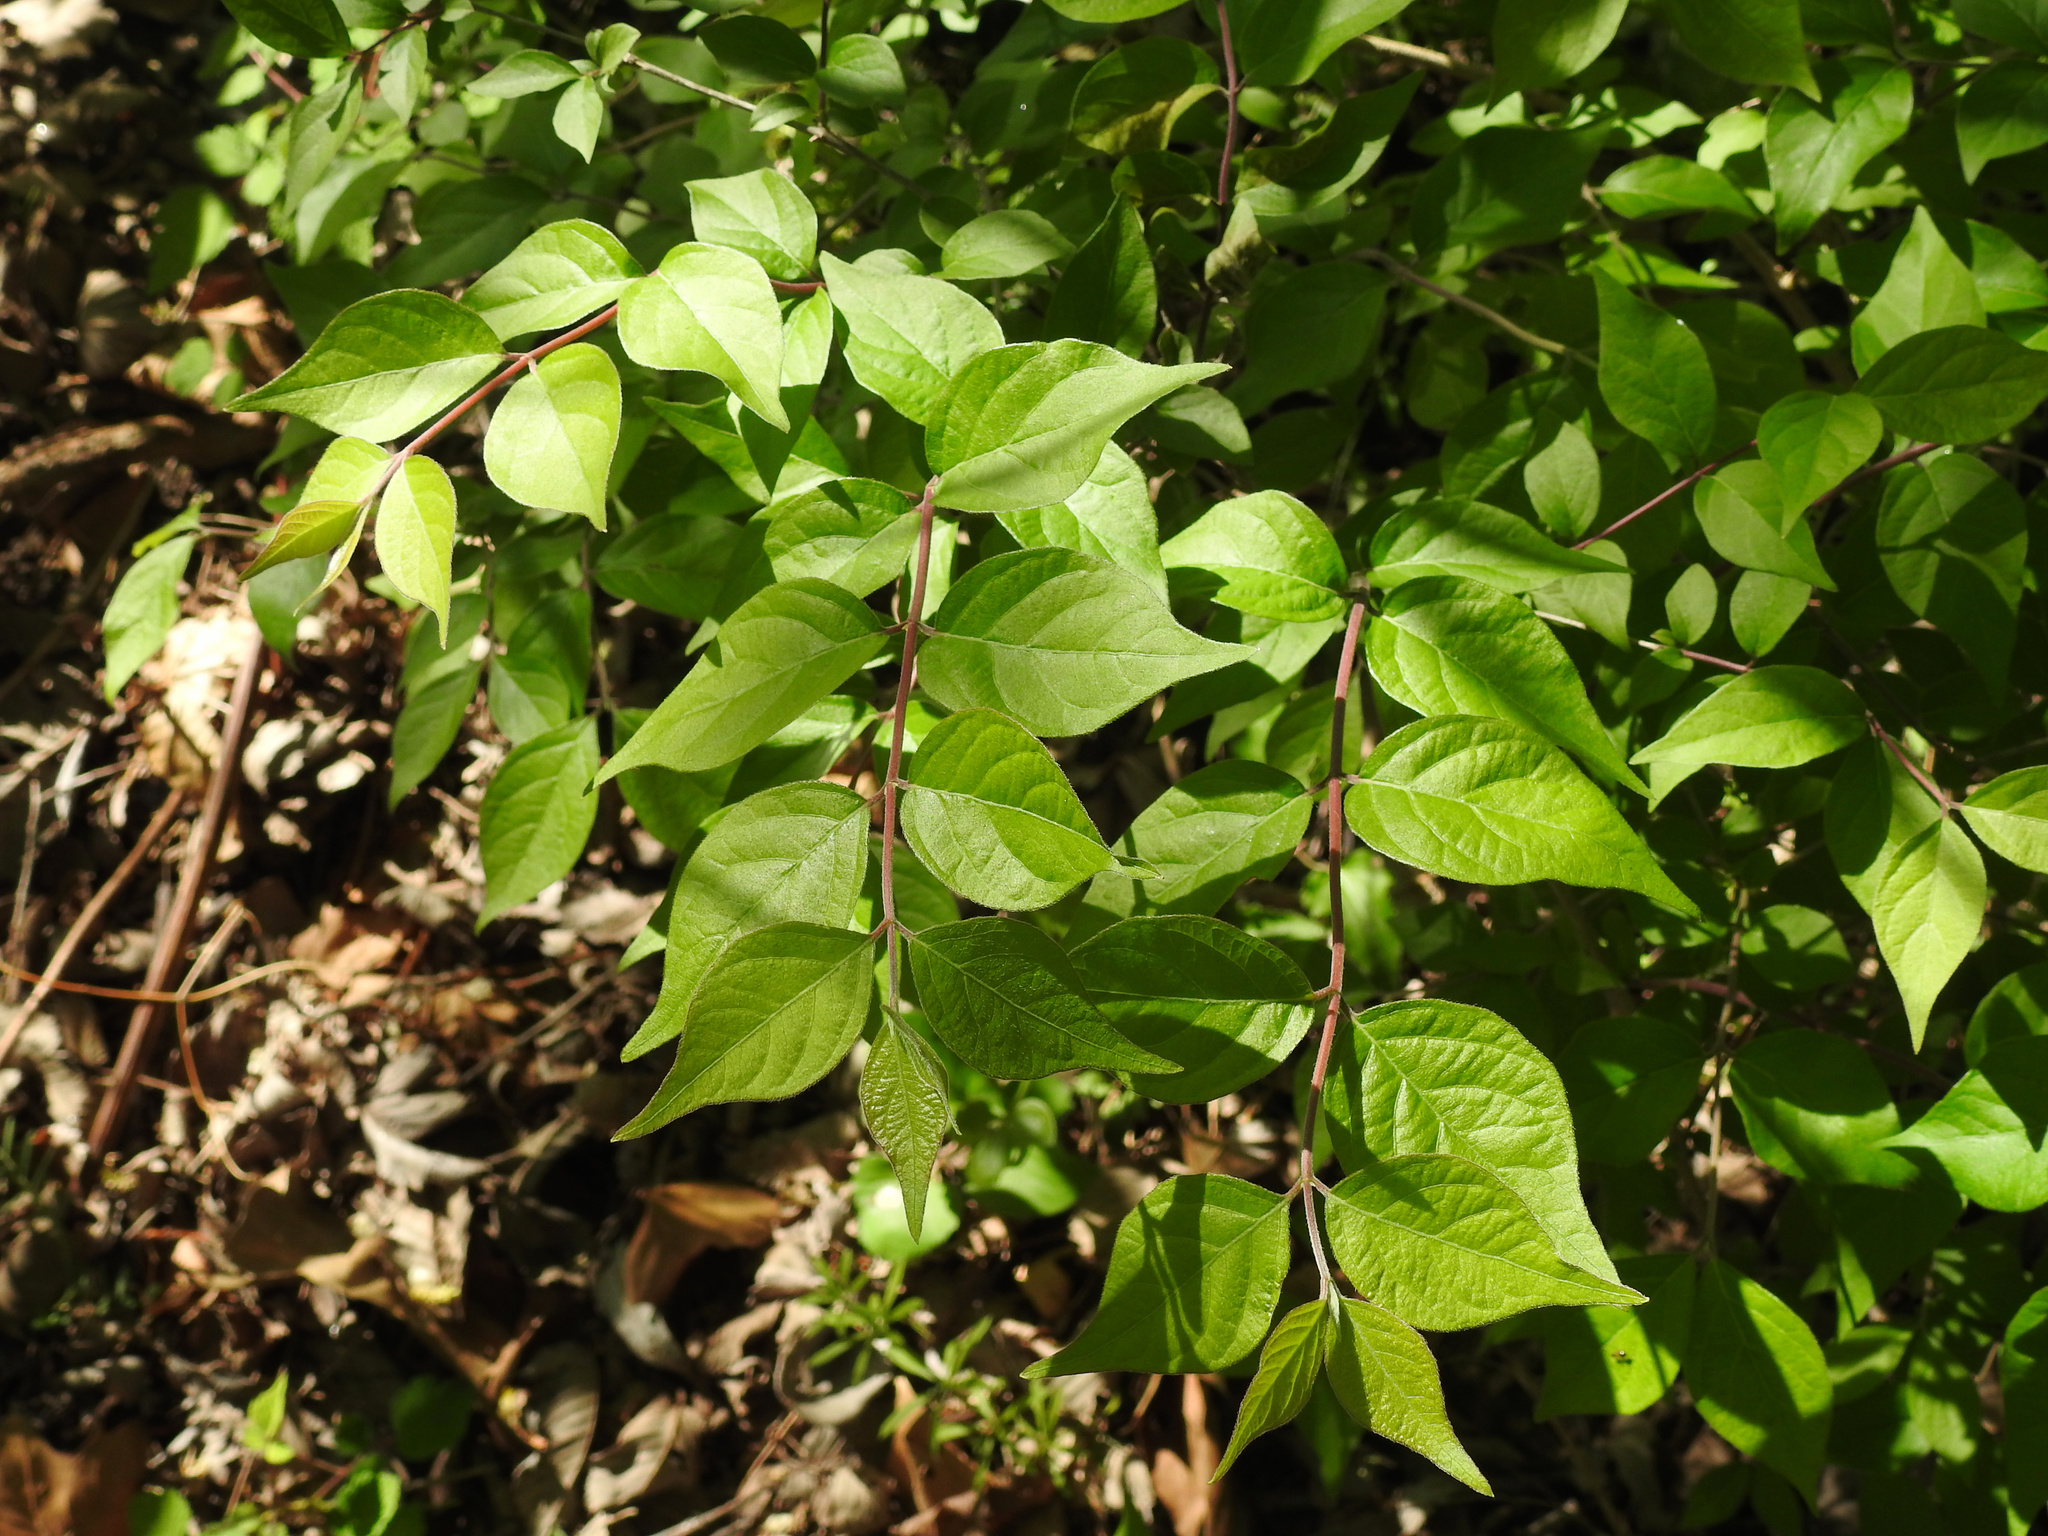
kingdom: Plantae
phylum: Tracheophyta
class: Magnoliopsida
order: Dipsacales
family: Caprifoliaceae
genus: Lonicera
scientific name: Lonicera maackii
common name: Amur honeysuckle
